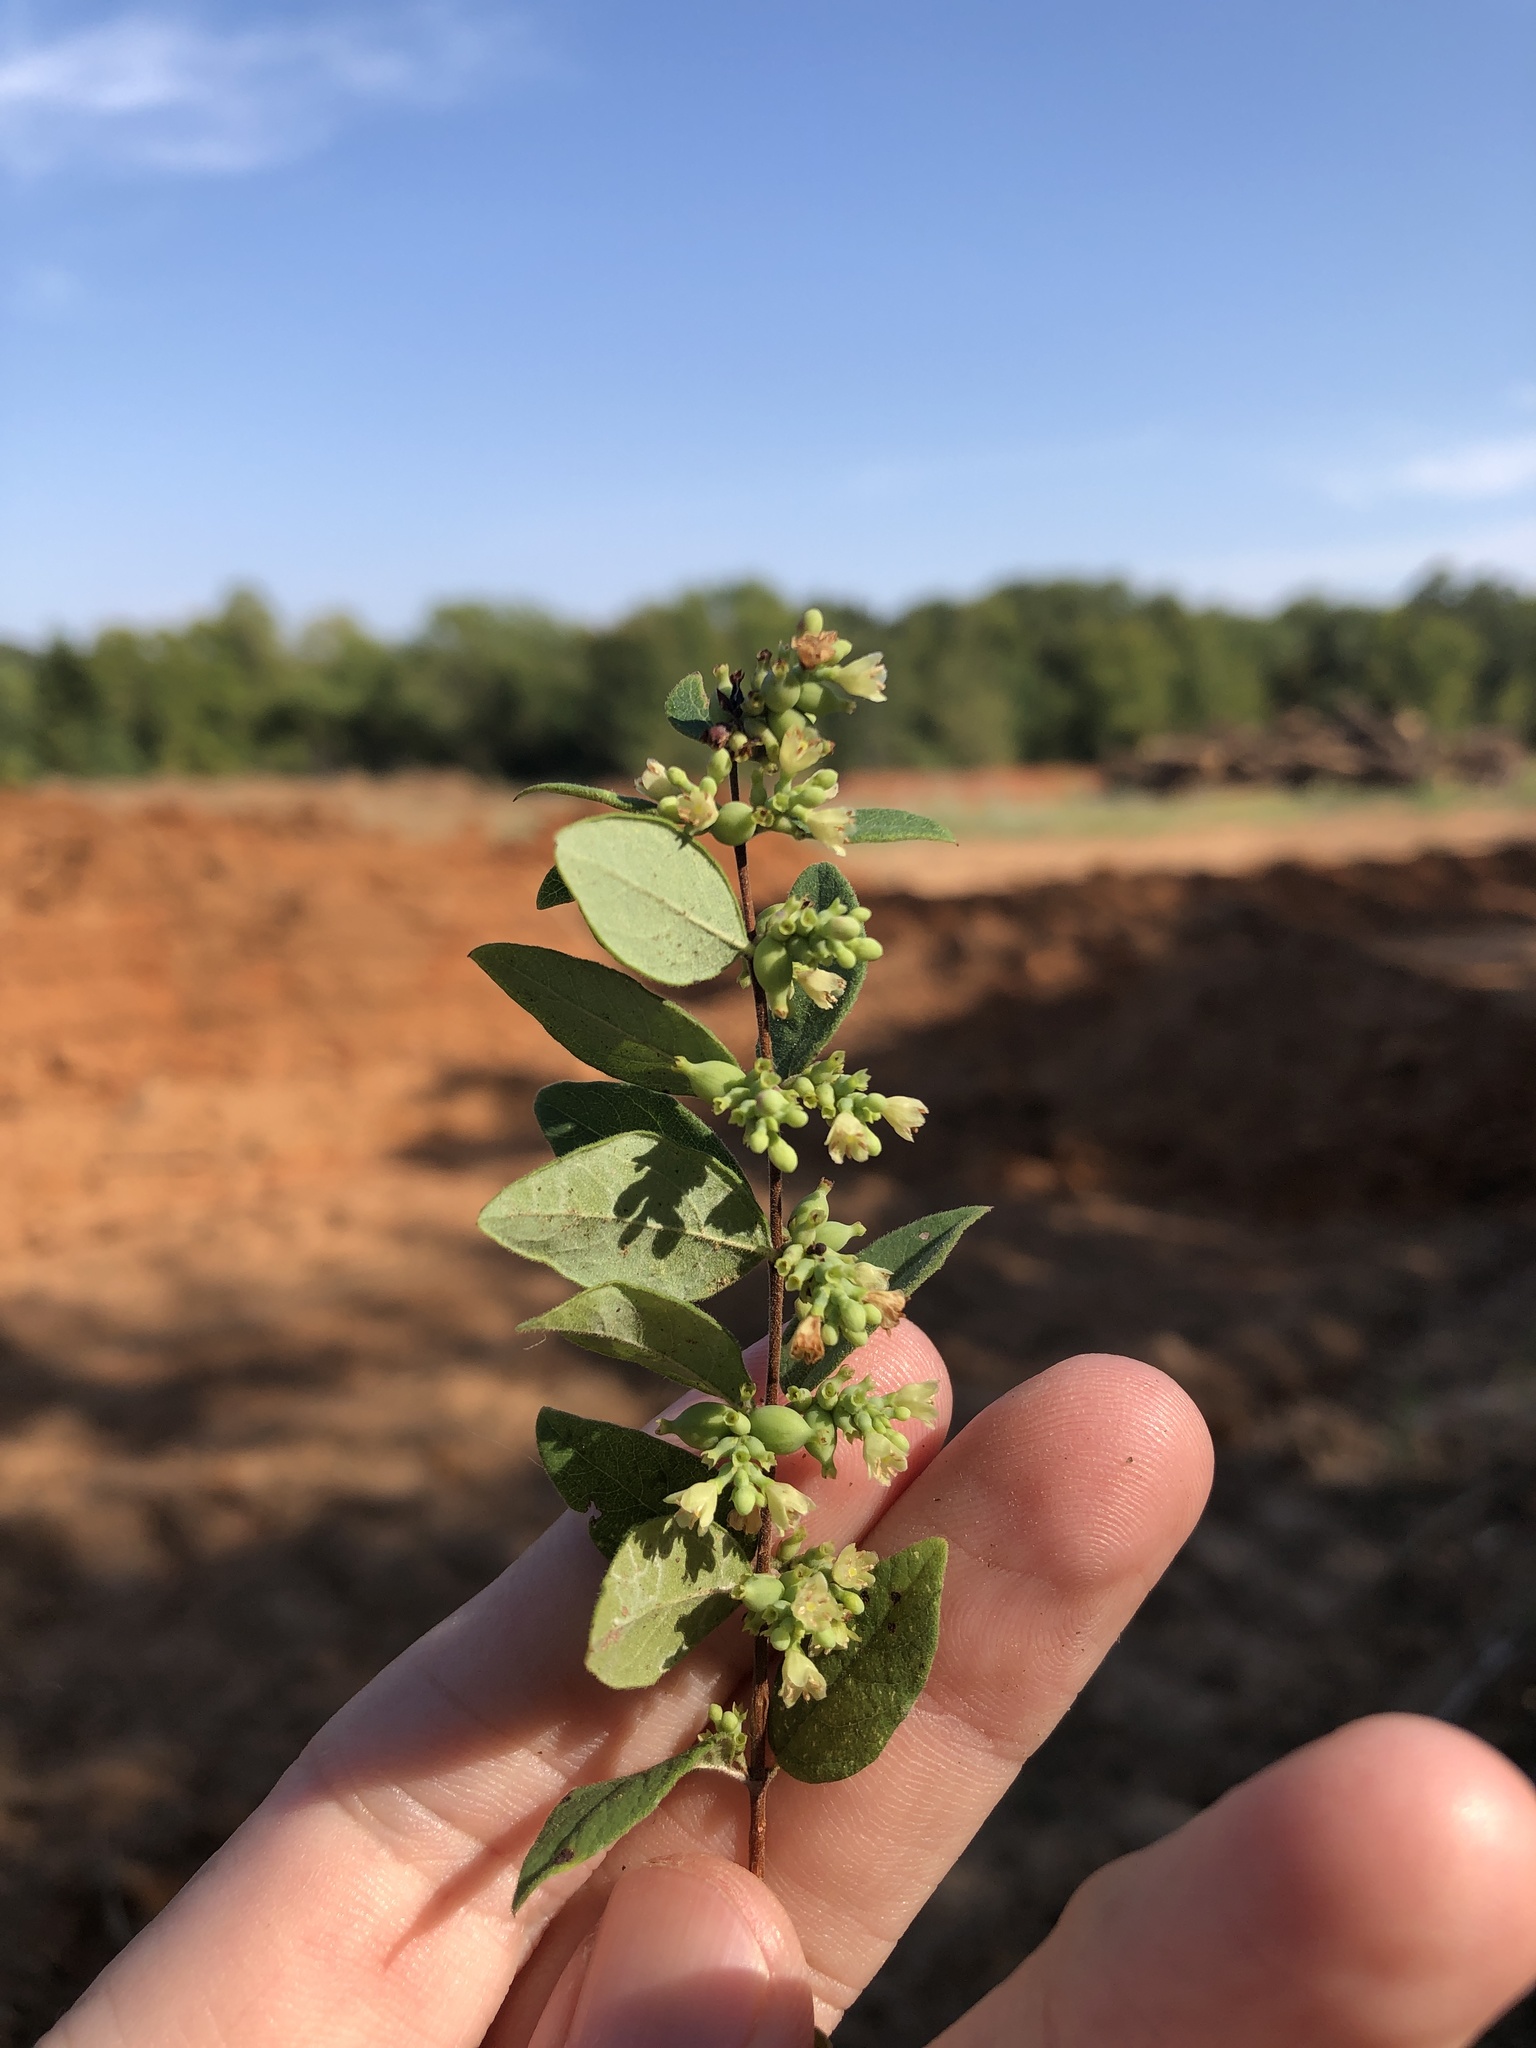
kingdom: Plantae
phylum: Tracheophyta
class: Magnoliopsida
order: Dipsacales
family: Caprifoliaceae
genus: Symphoricarpos
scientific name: Symphoricarpos orbiculatus
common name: Coralberry
